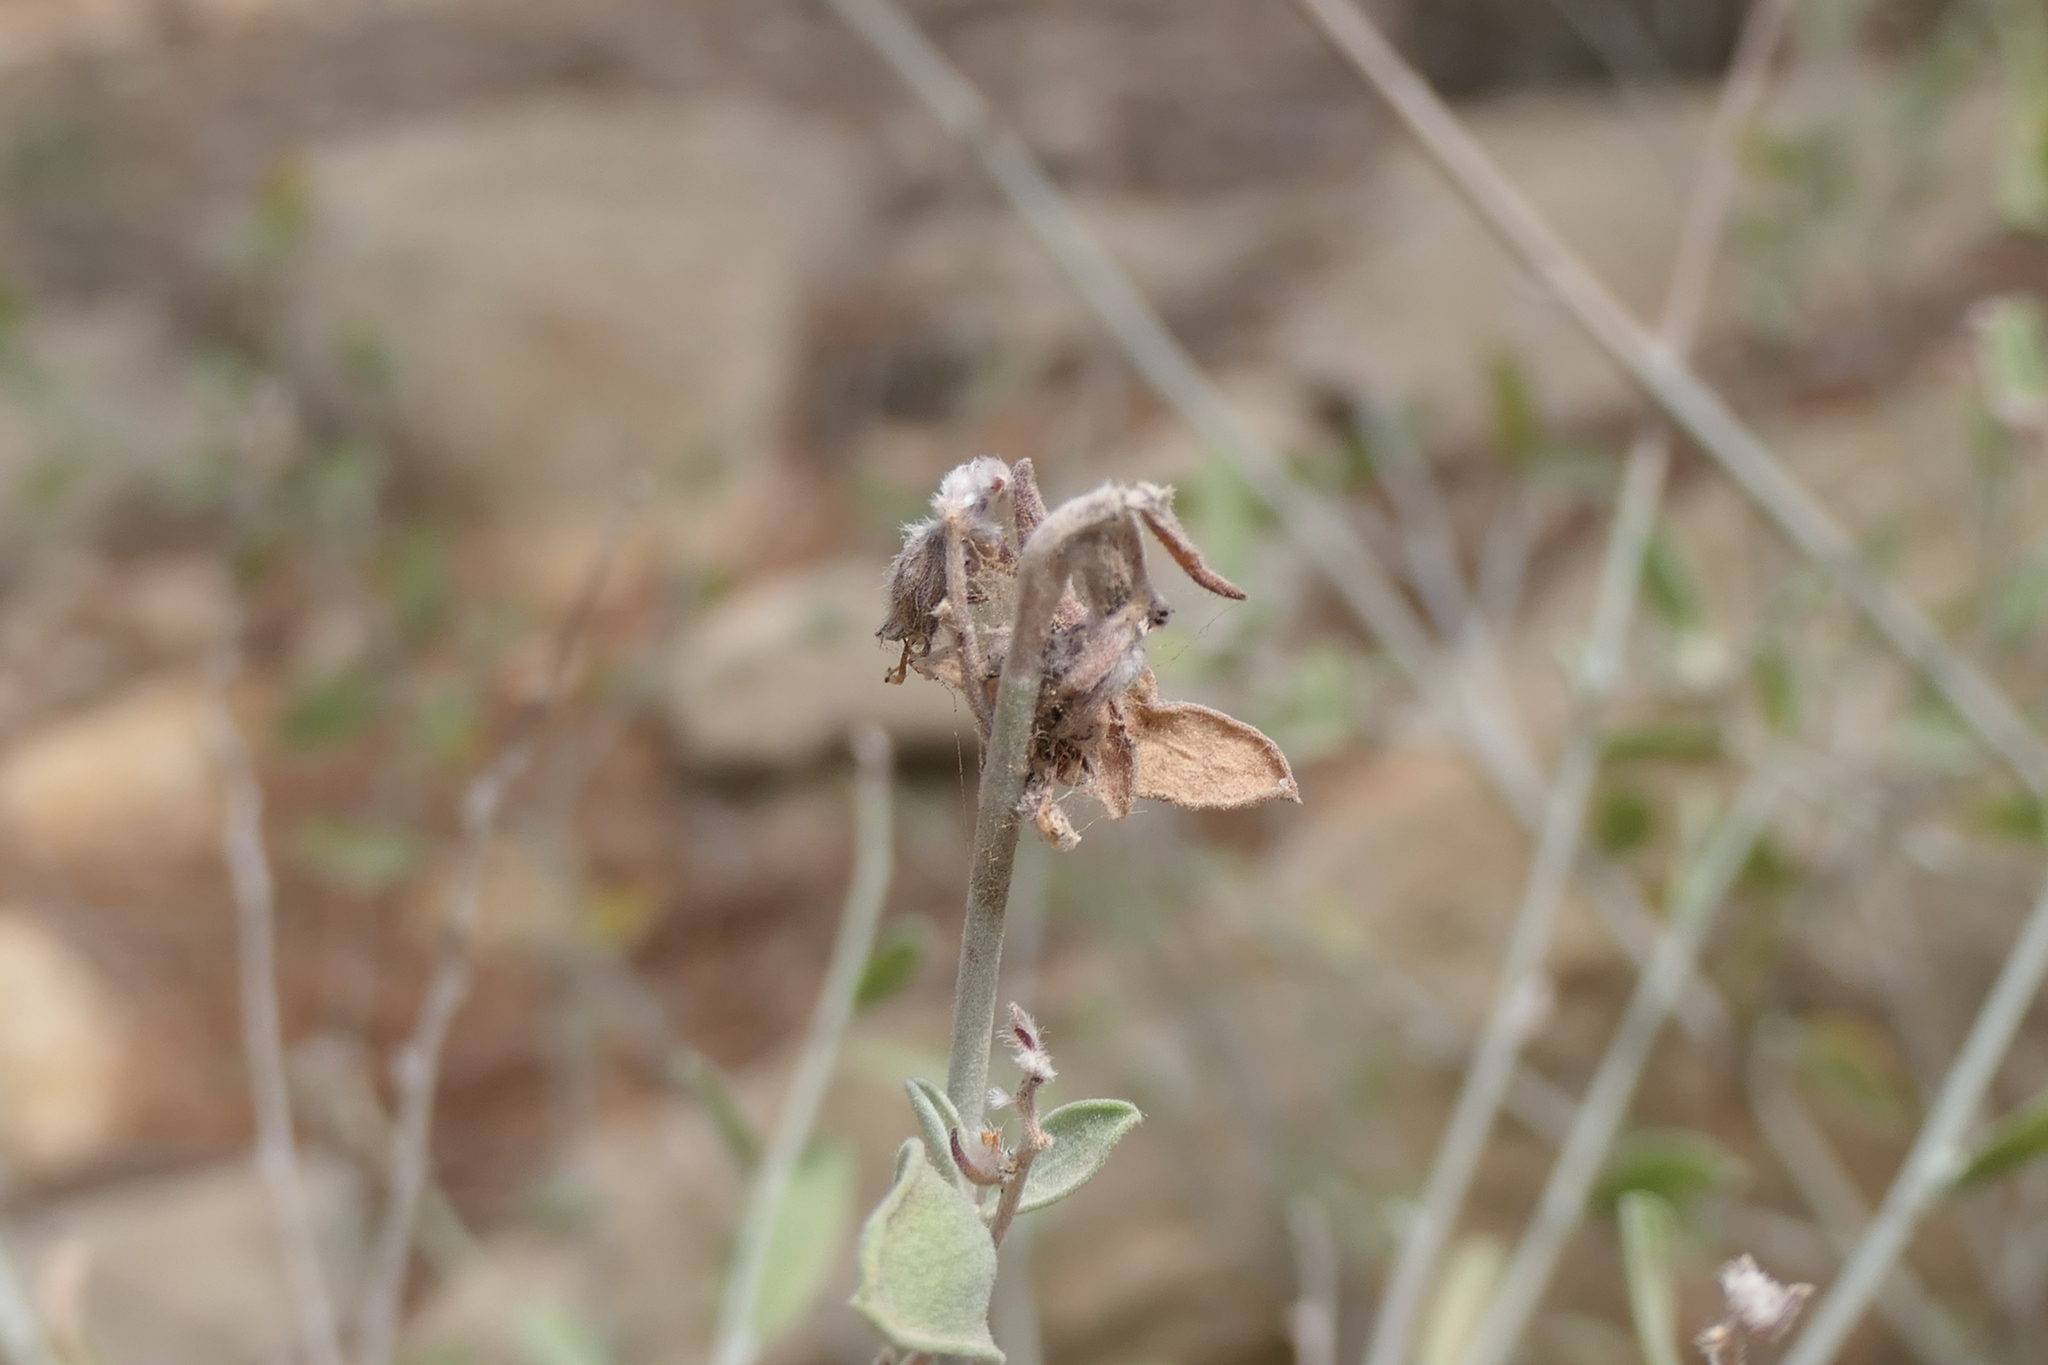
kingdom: Plantae
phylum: Tracheophyta
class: Magnoliopsida
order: Fabales
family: Fabaceae
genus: Anthyllis
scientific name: Anthyllis cytisoides
